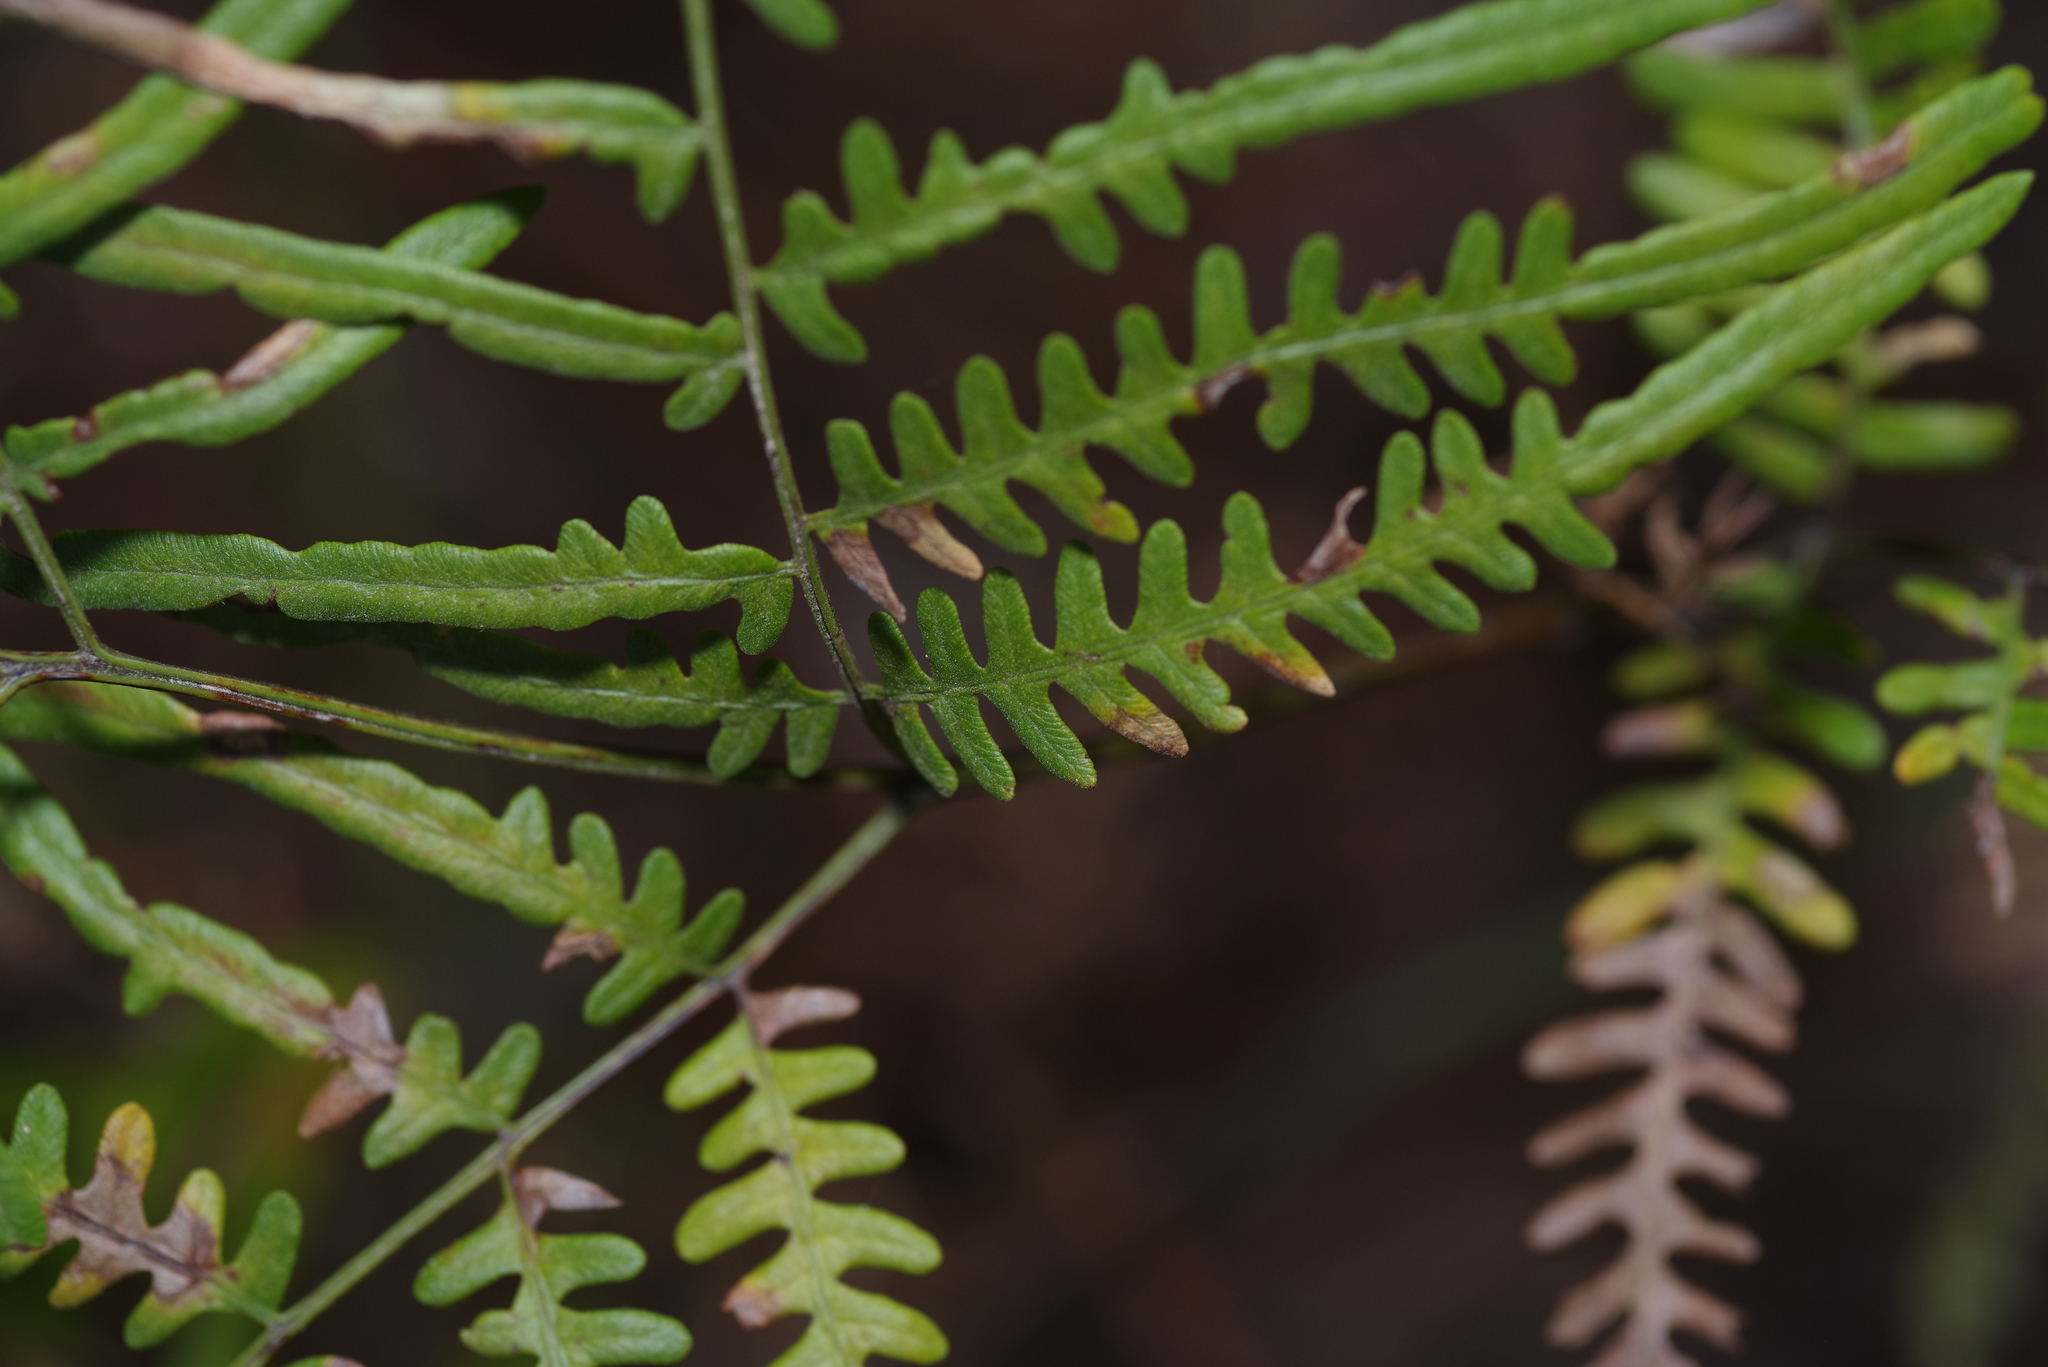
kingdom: Plantae
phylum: Tracheophyta
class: Polypodiopsida
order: Polypodiales
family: Dennstaedtiaceae
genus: Pteridium
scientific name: Pteridium aquilinum
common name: Bracken
